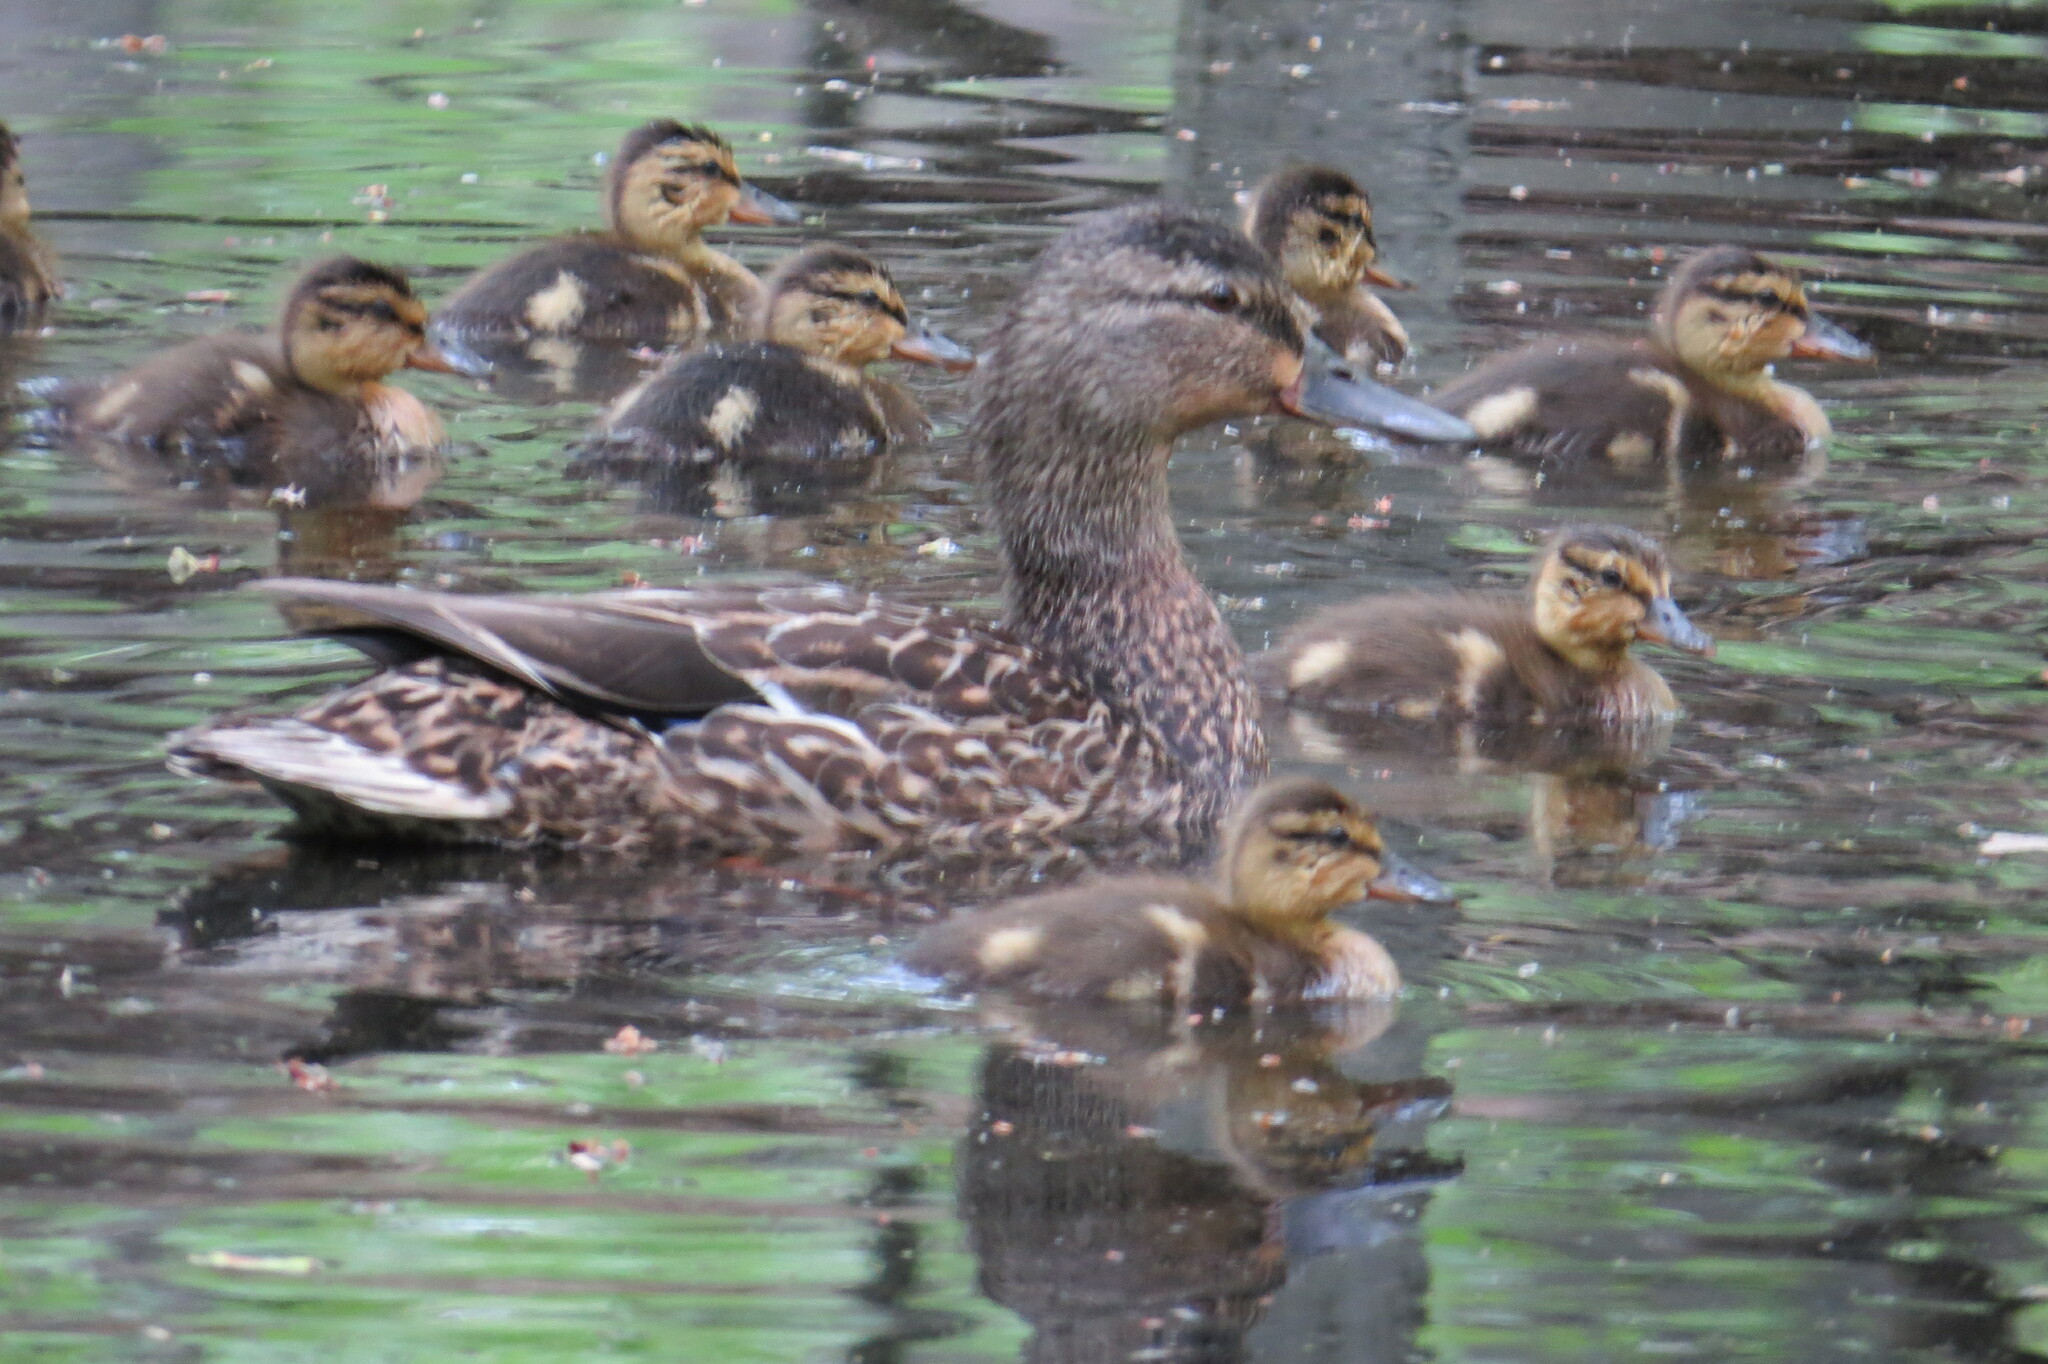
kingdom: Animalia
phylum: Chordata
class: Aves
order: Anseriformes
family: Anatidae
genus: Anas
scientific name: Anas platyrhynchos
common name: Mallard
